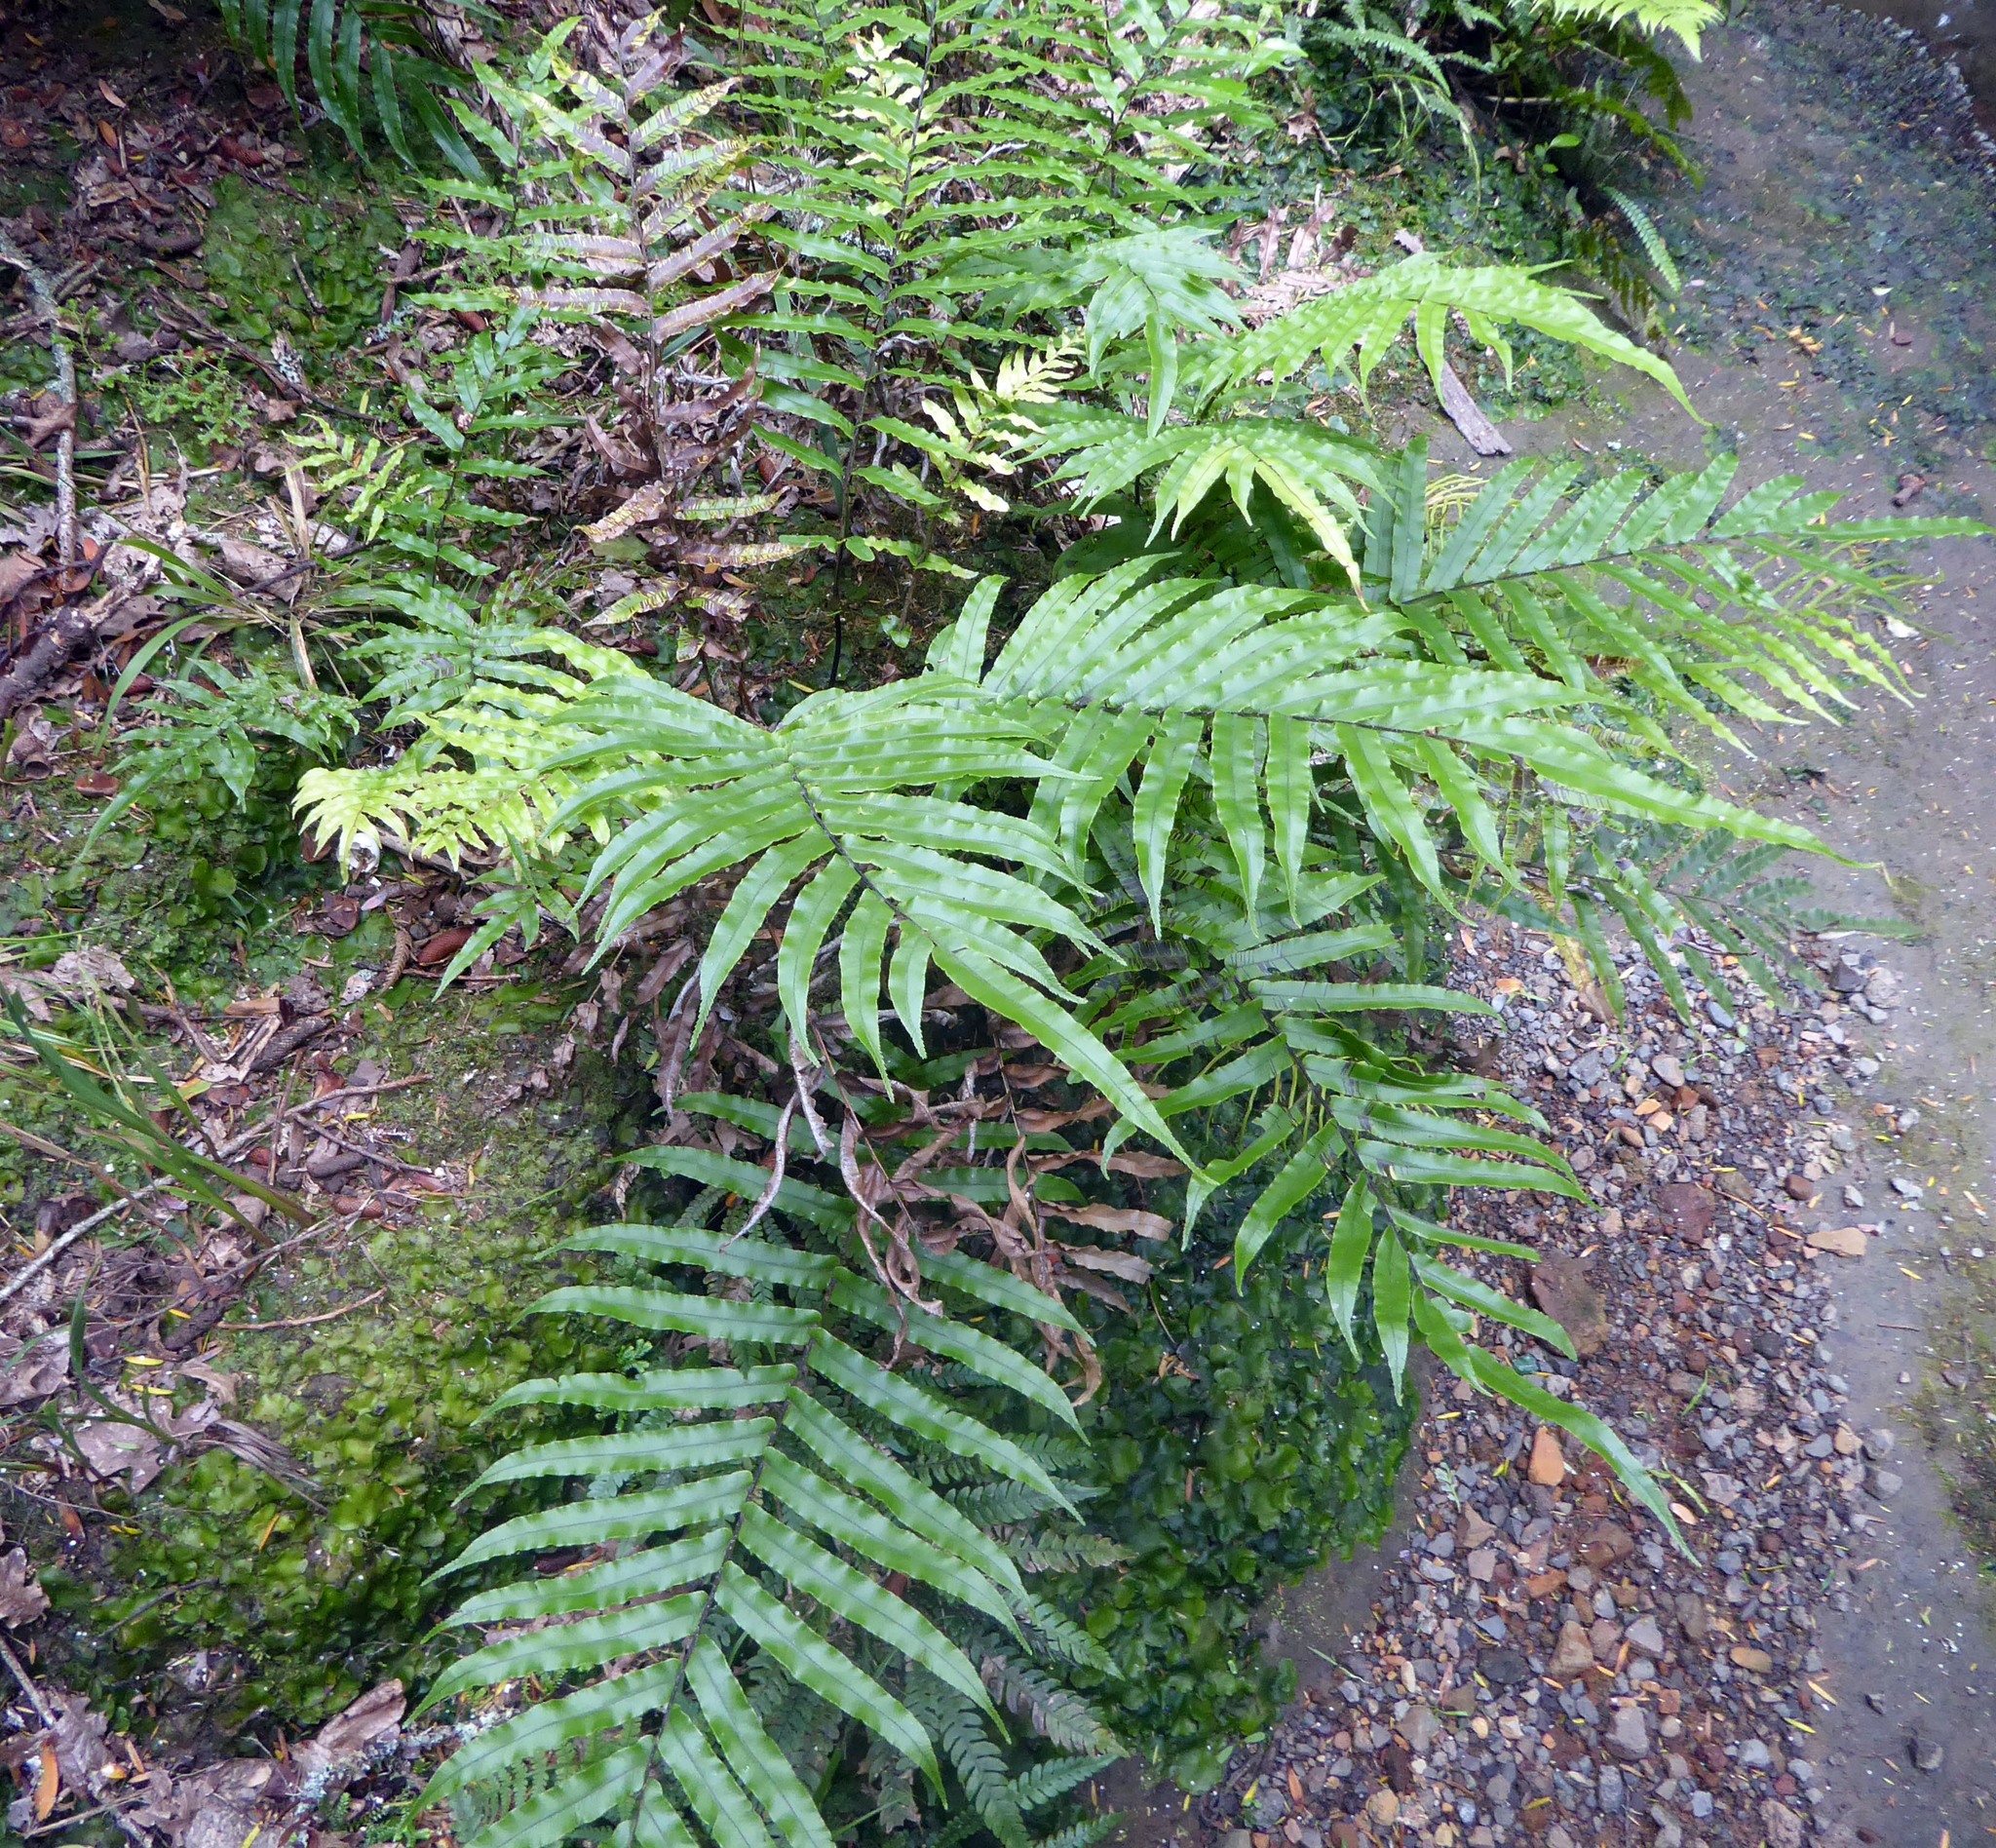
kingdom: Plantae
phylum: Tracheophyta
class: Polypodiopsida
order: Polypodiales
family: Blechnaceae
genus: Parablechnum
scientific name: Parablechnum novae-zelandiae
